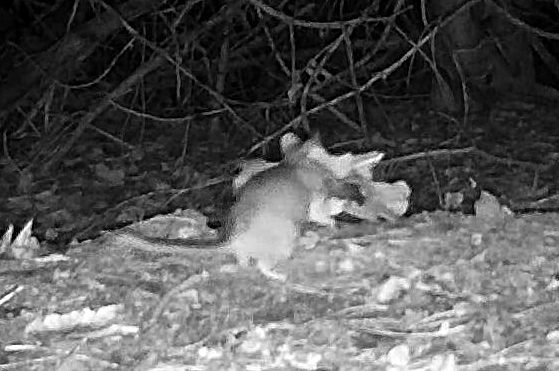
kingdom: Animalia
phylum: Chordata
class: Mammalia
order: Rodentia
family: Cricetidae
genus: Neotoma
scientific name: Neotoma cinerea
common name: Bushy-tailed woodrat
